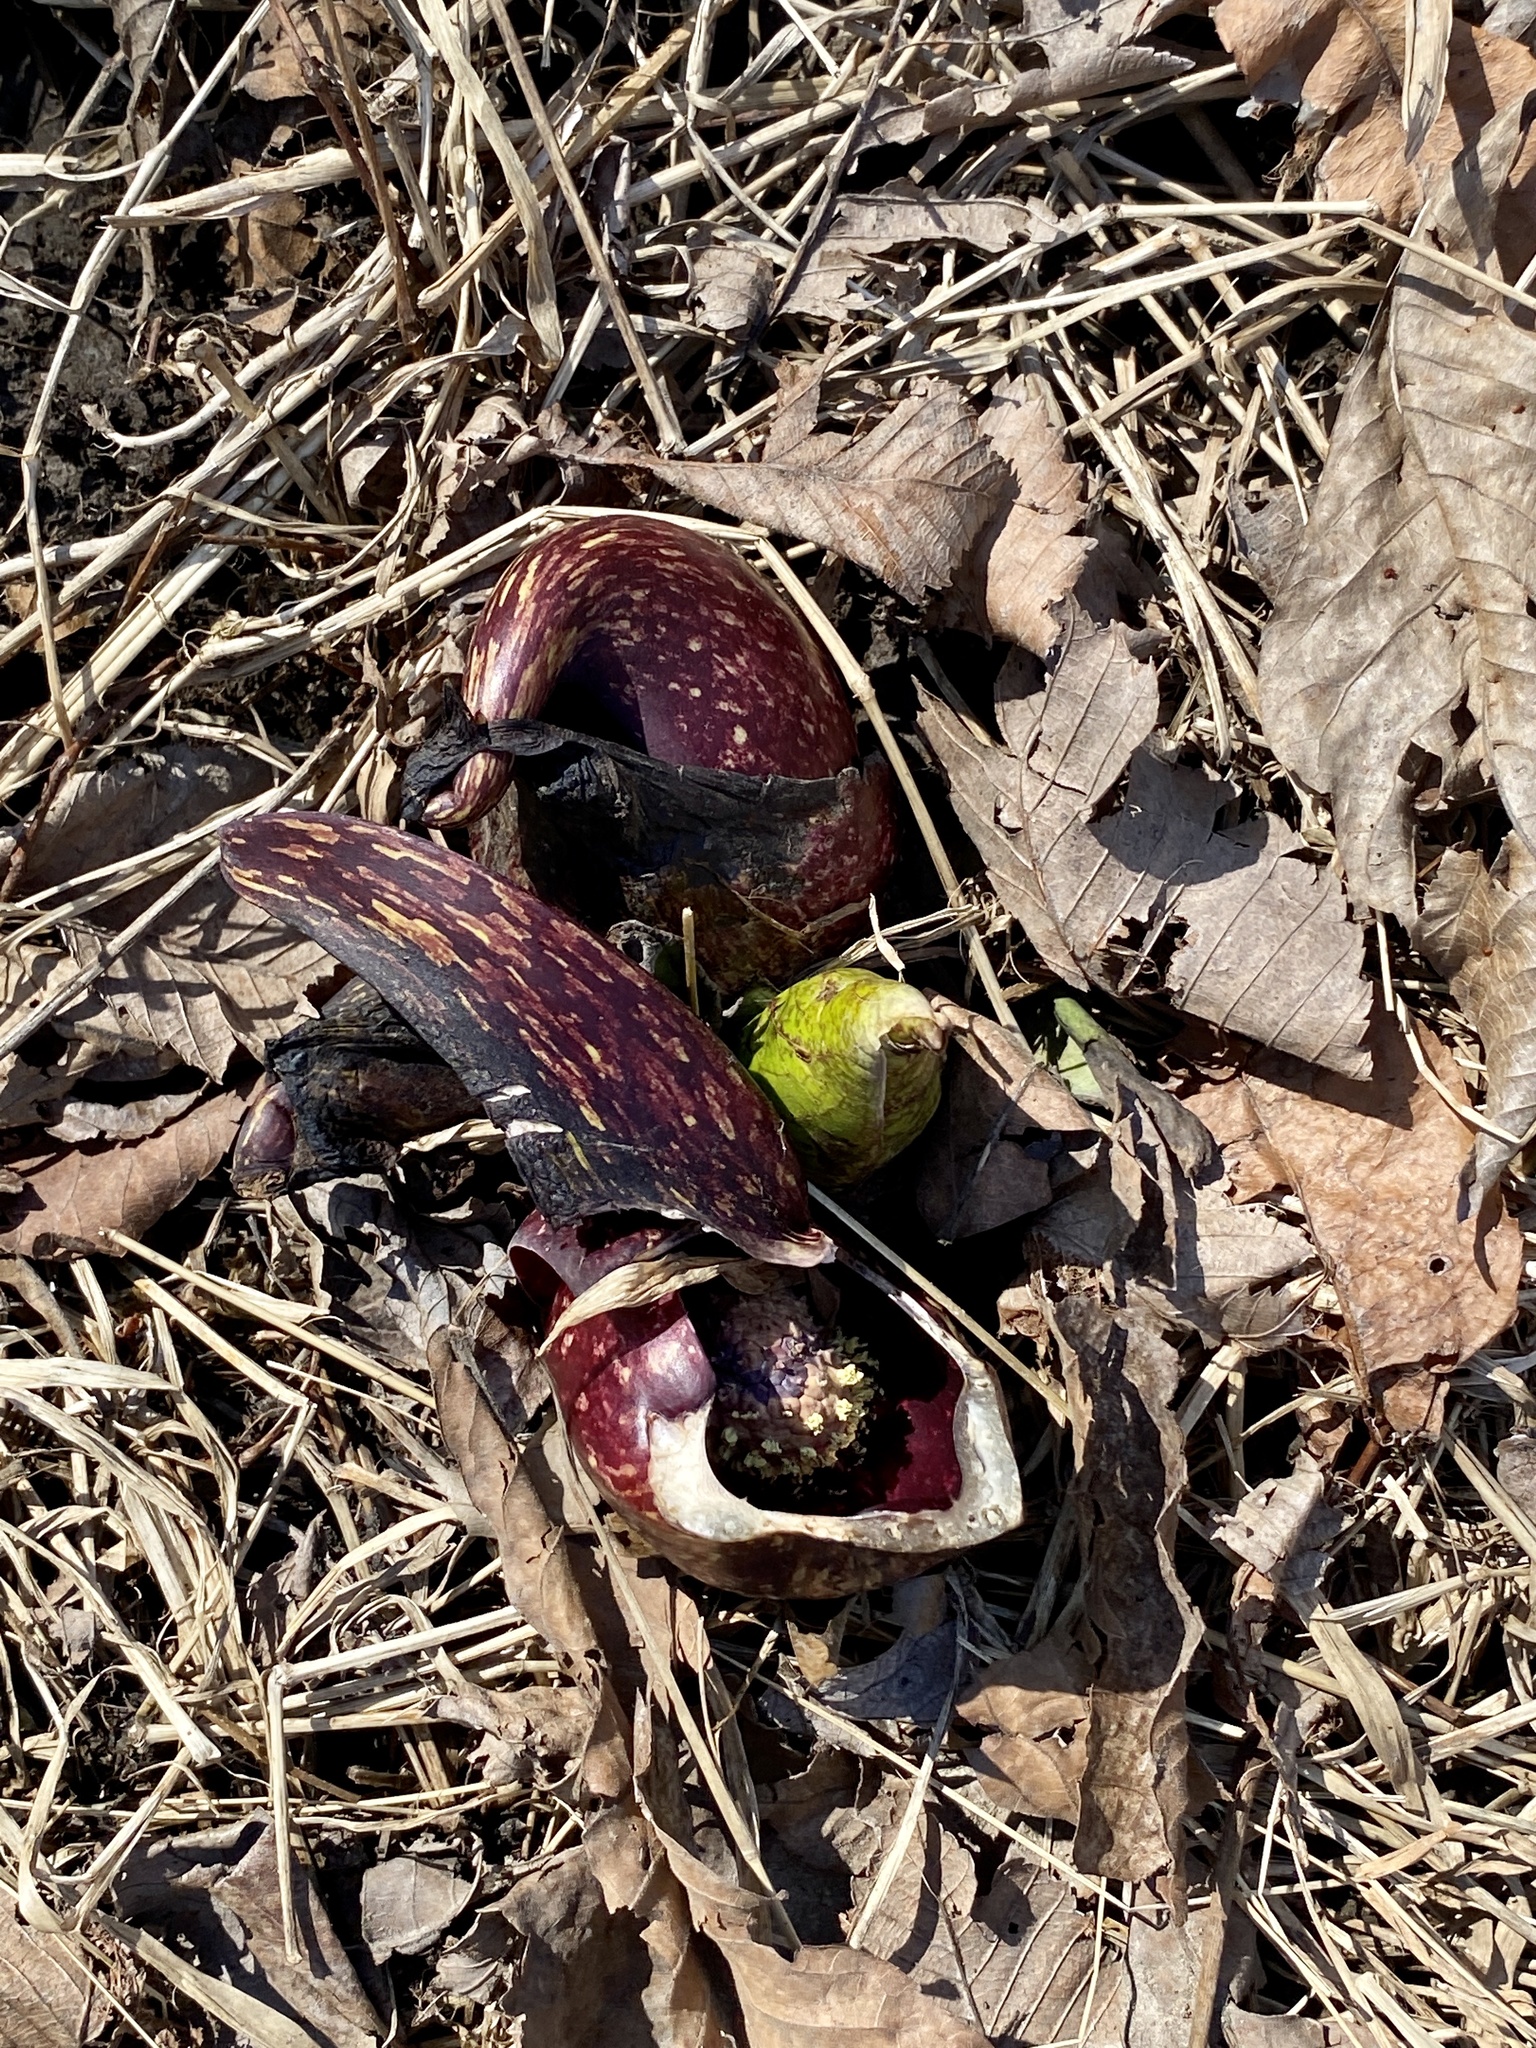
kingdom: Plantae
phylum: Tracheophyta
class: Liliopsida
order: Alismatales
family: Araceae
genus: Symplocarpus
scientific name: Symplocarpus foetidus
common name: Eastern skunk cabbage
